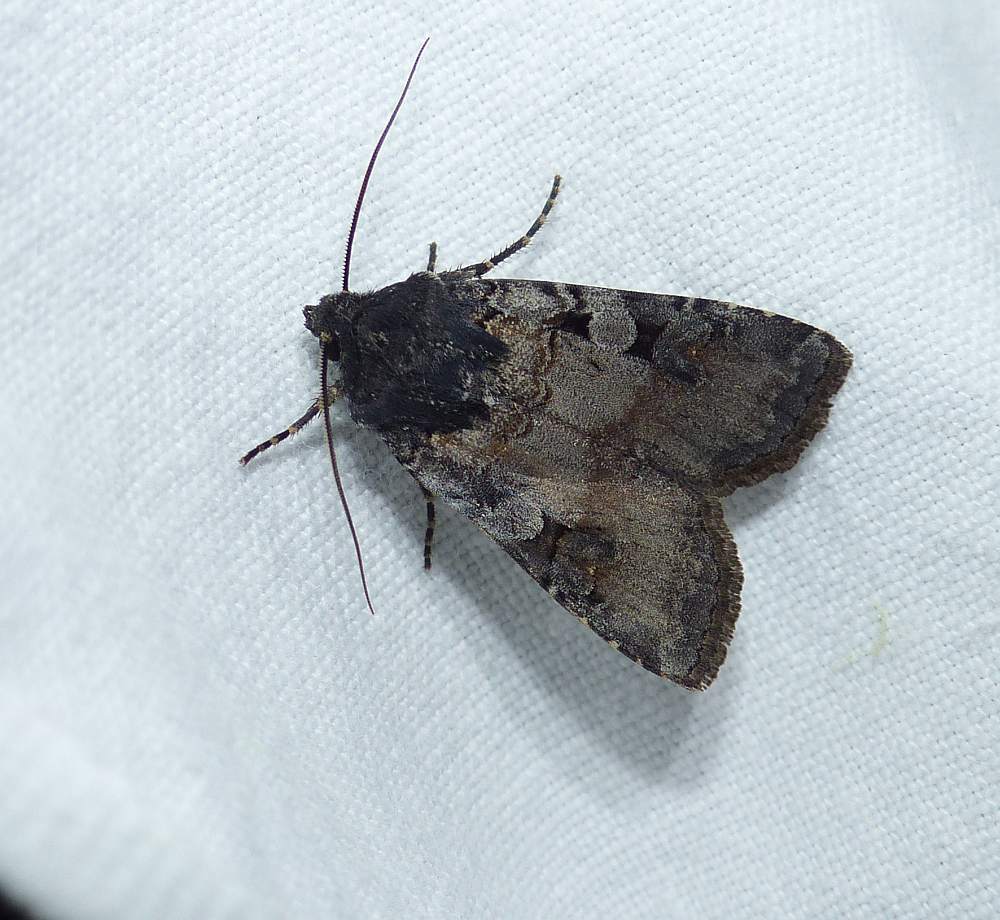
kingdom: Animalia
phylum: Arthropoda
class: Insecta
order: Lepidoptera
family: Noctuidae
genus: Euxoa
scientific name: Euxoa albipennis
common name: White-striped dart
